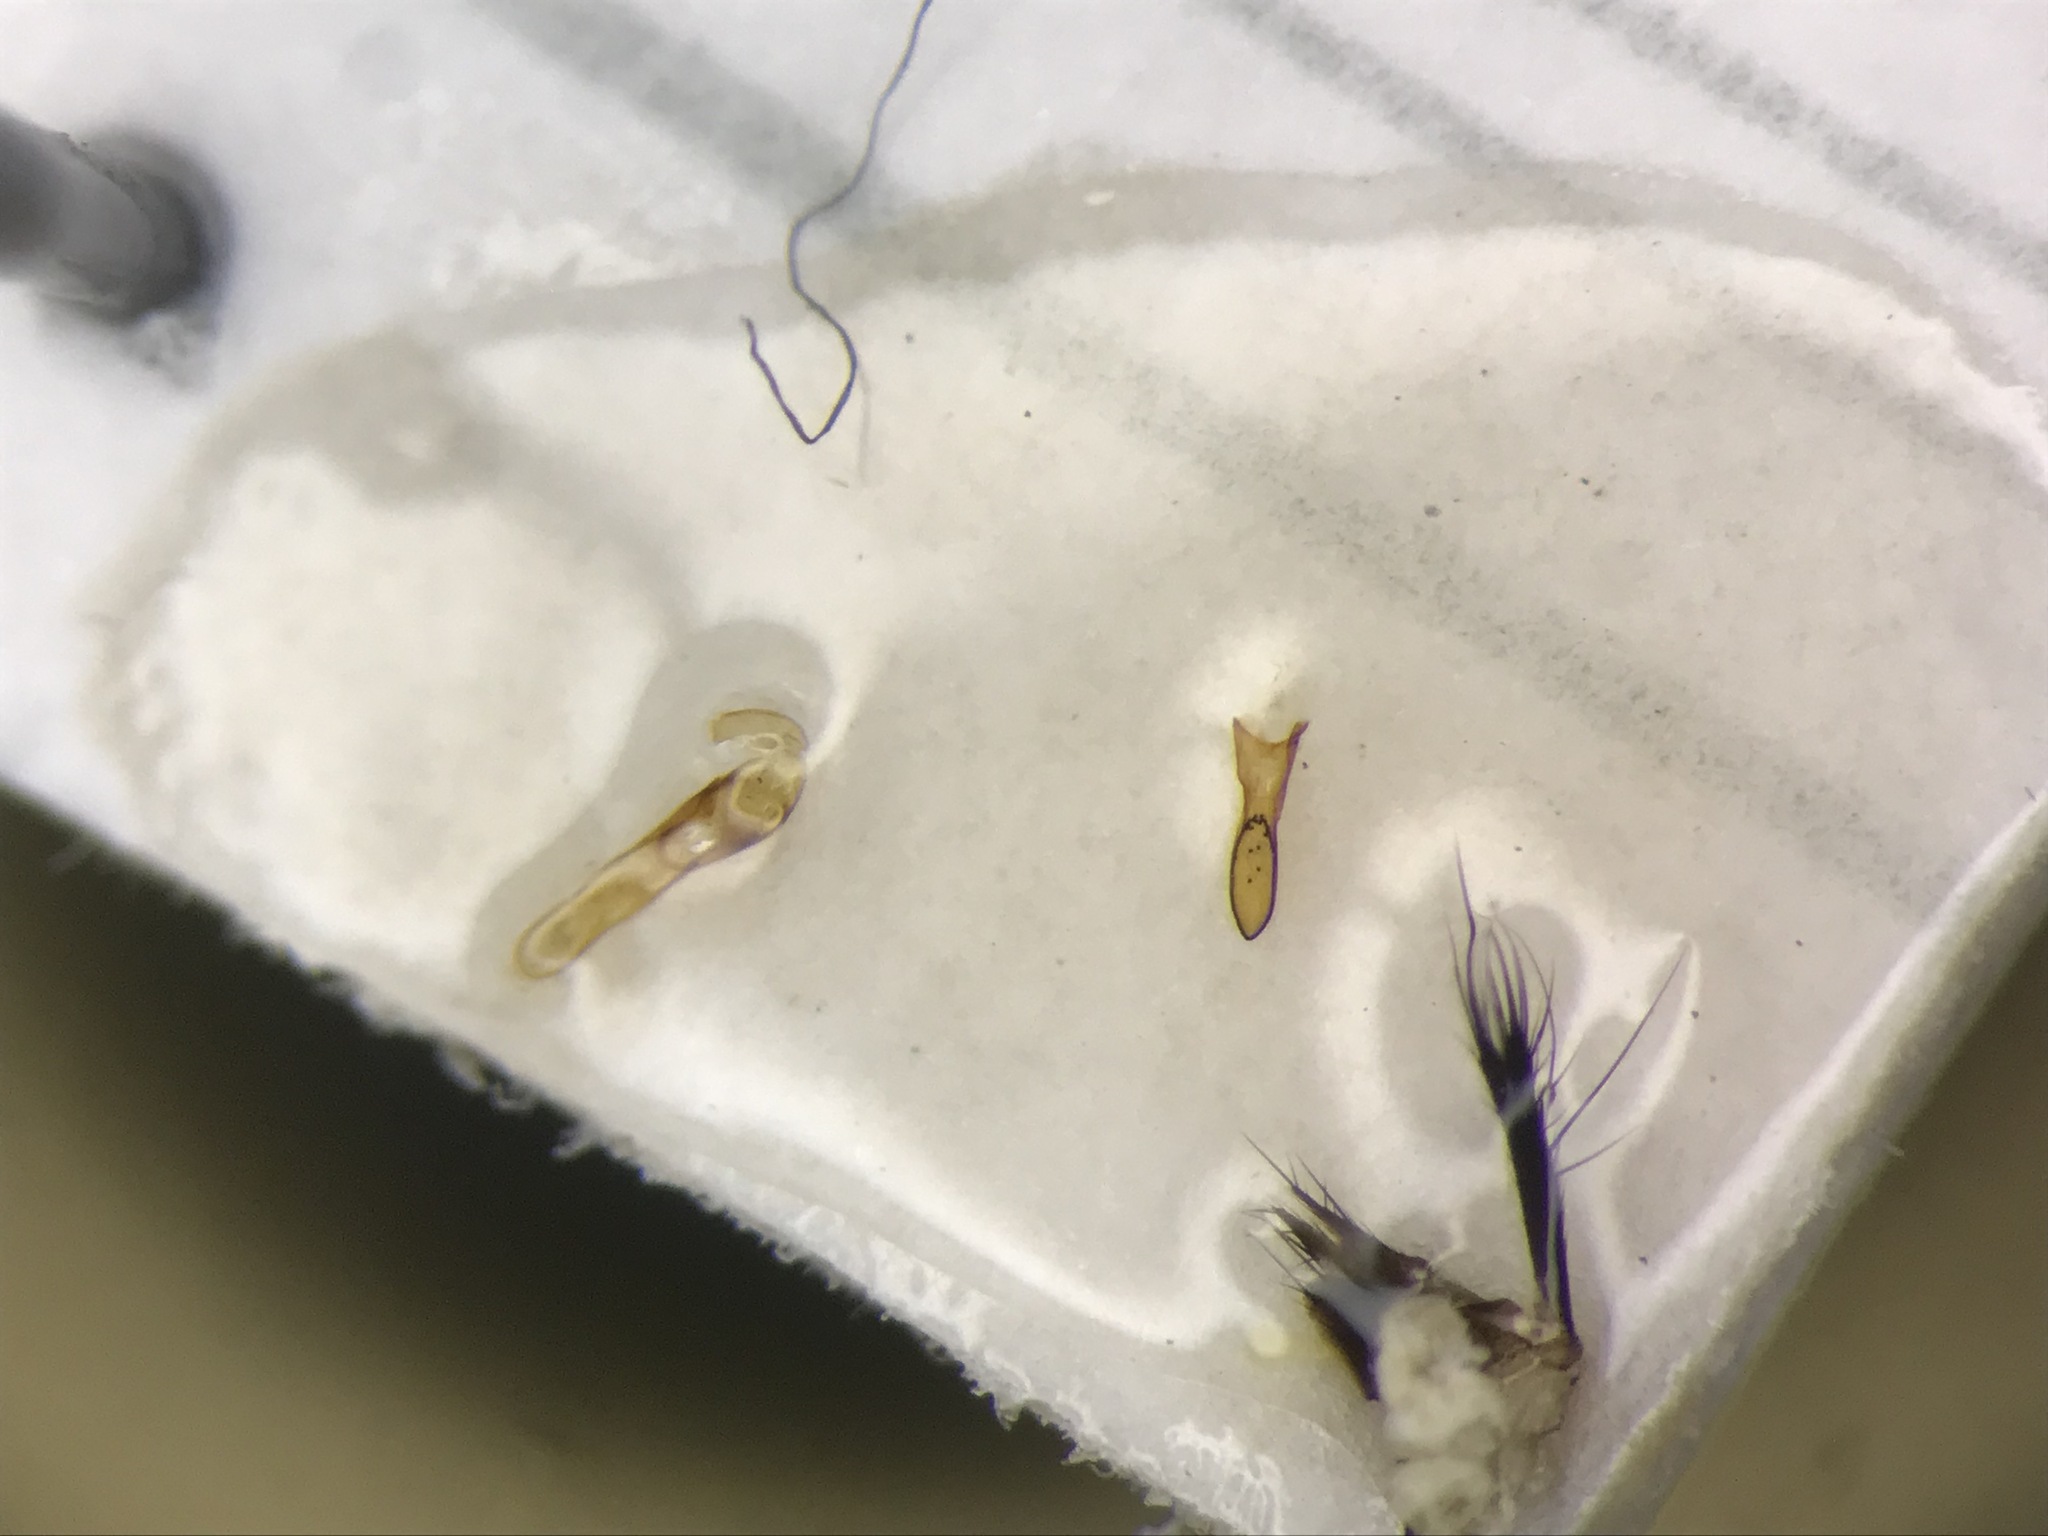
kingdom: Animalia
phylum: Arthropoda
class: Insecta
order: Coleoptera
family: Staphylinidae
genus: Philonthus
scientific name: Philonthus jurgans
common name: Staph beetle
